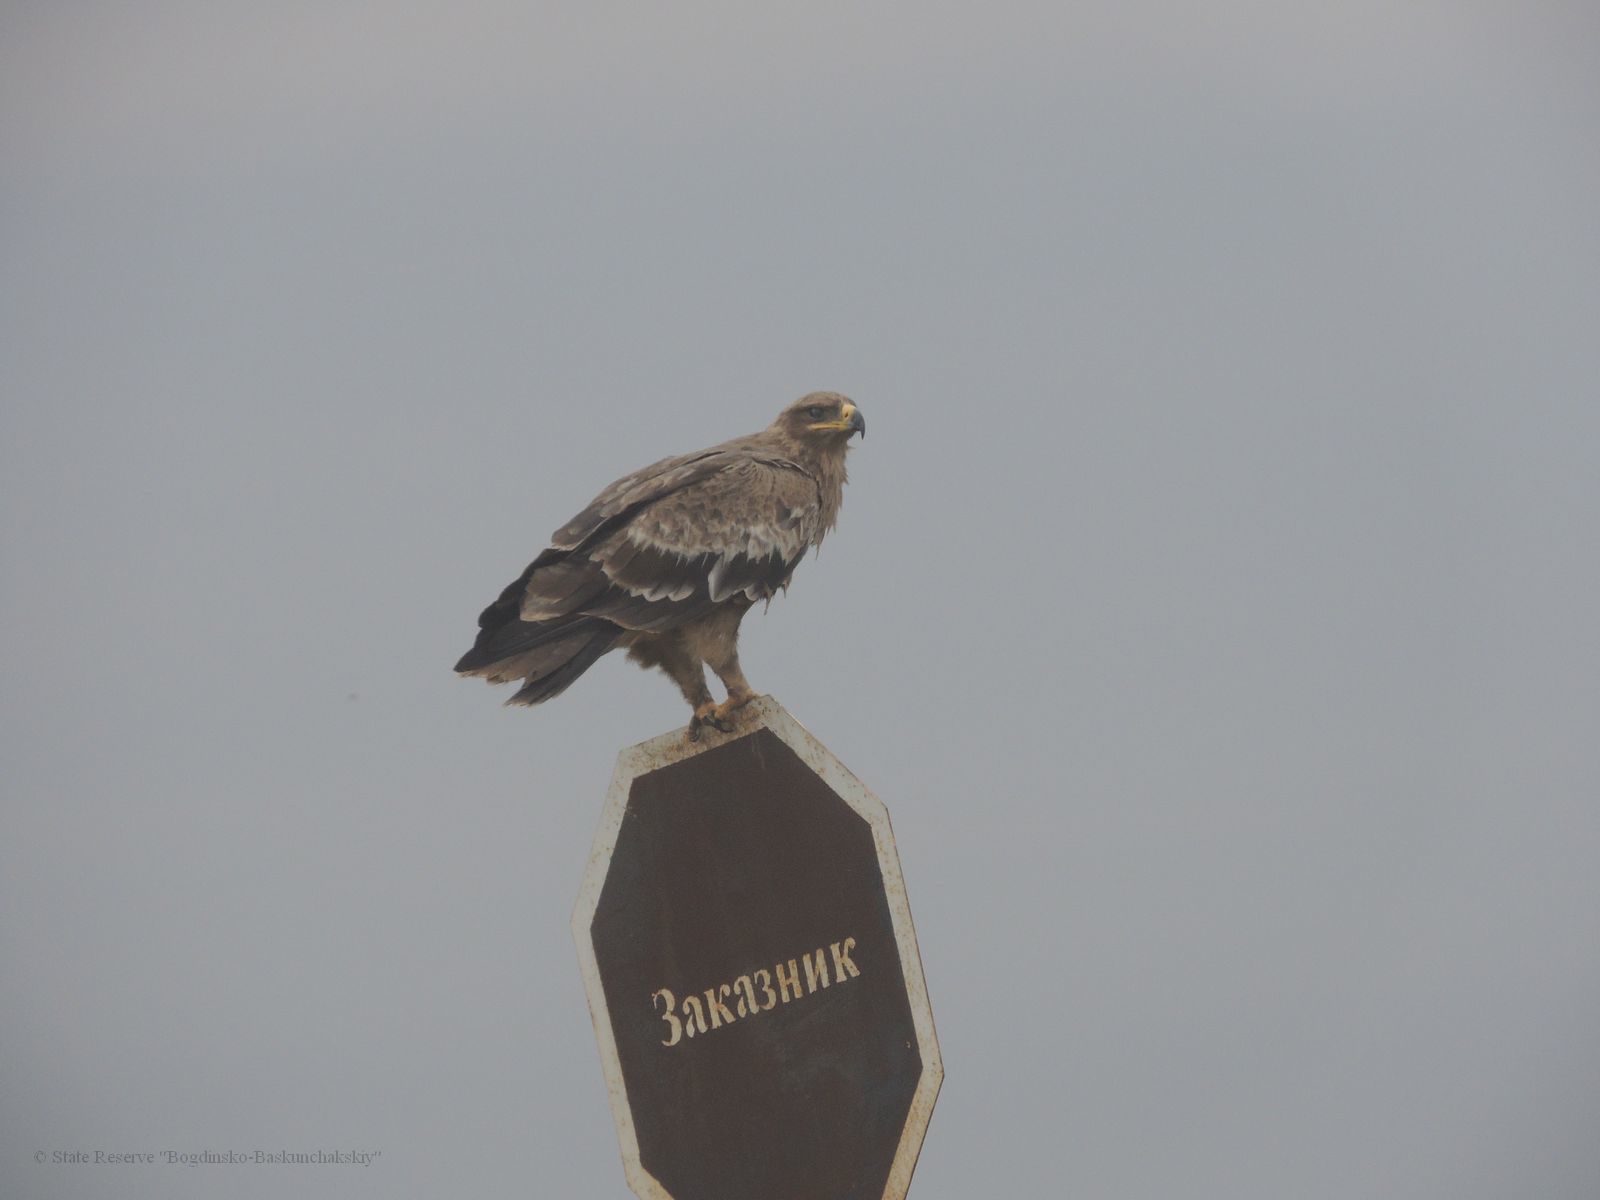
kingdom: Animalia
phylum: Chordata
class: Aves
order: Accipitriformes
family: Accipitridae
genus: Aquila
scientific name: Aquila nipalensis
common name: Steppe eagle
